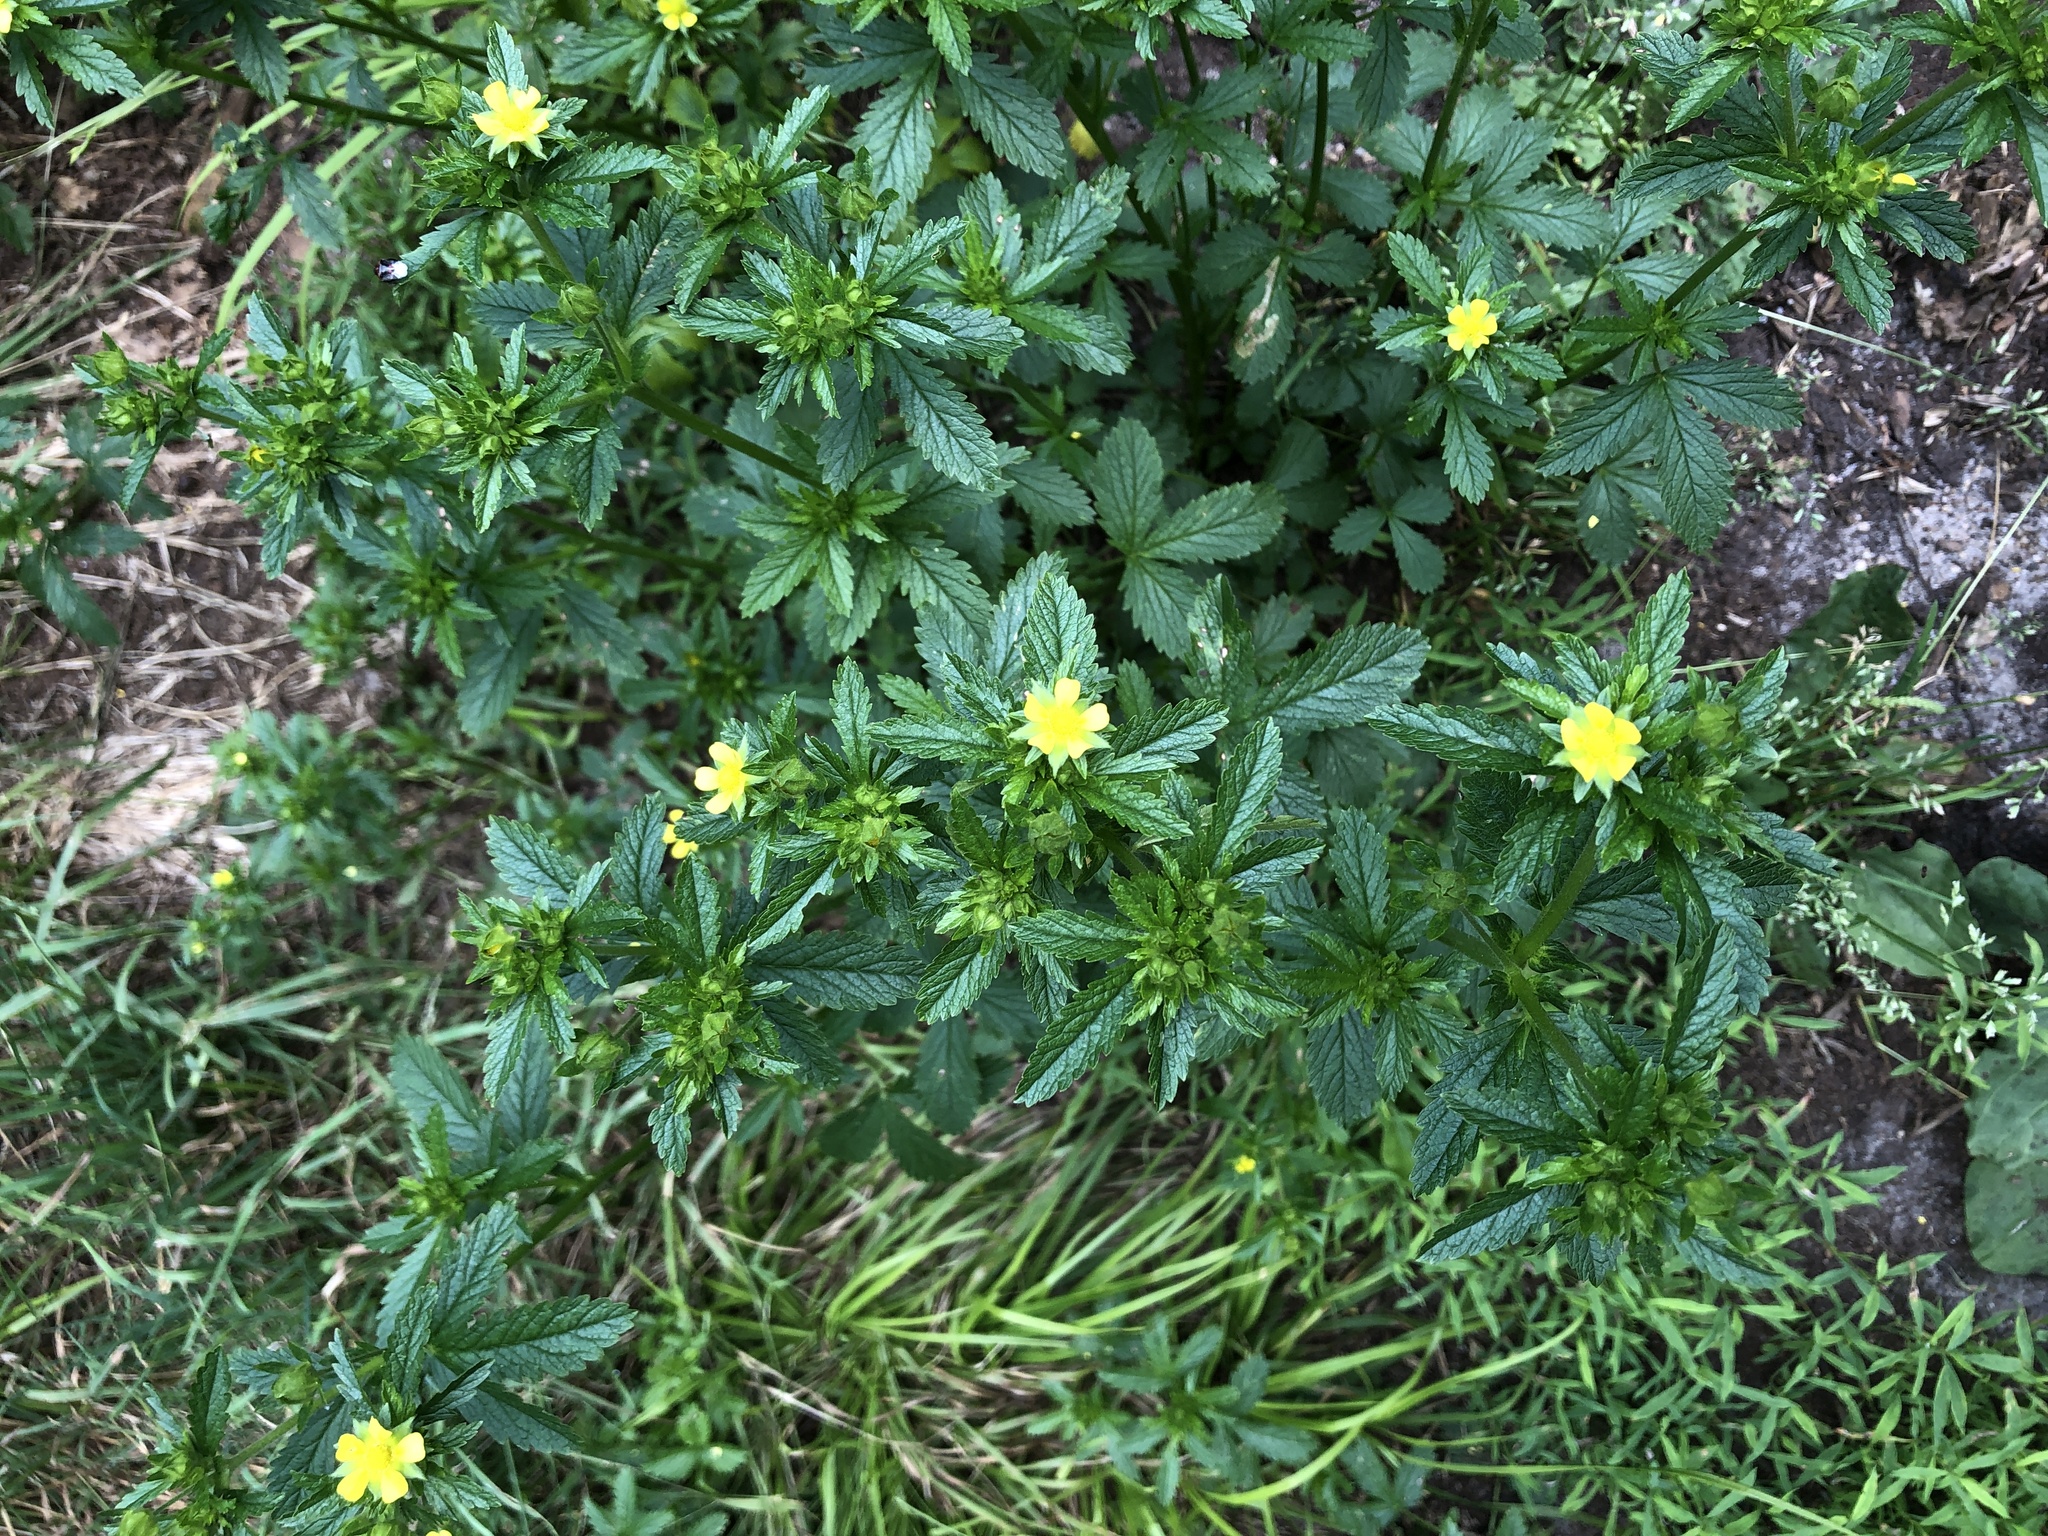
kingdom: Plantae
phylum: Tracheophyta
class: Magnoliopsida
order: Rosales
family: Rosaceae
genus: Potentilla
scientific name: Potentilla norvegica
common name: Ternate-leaved cinquefoil
